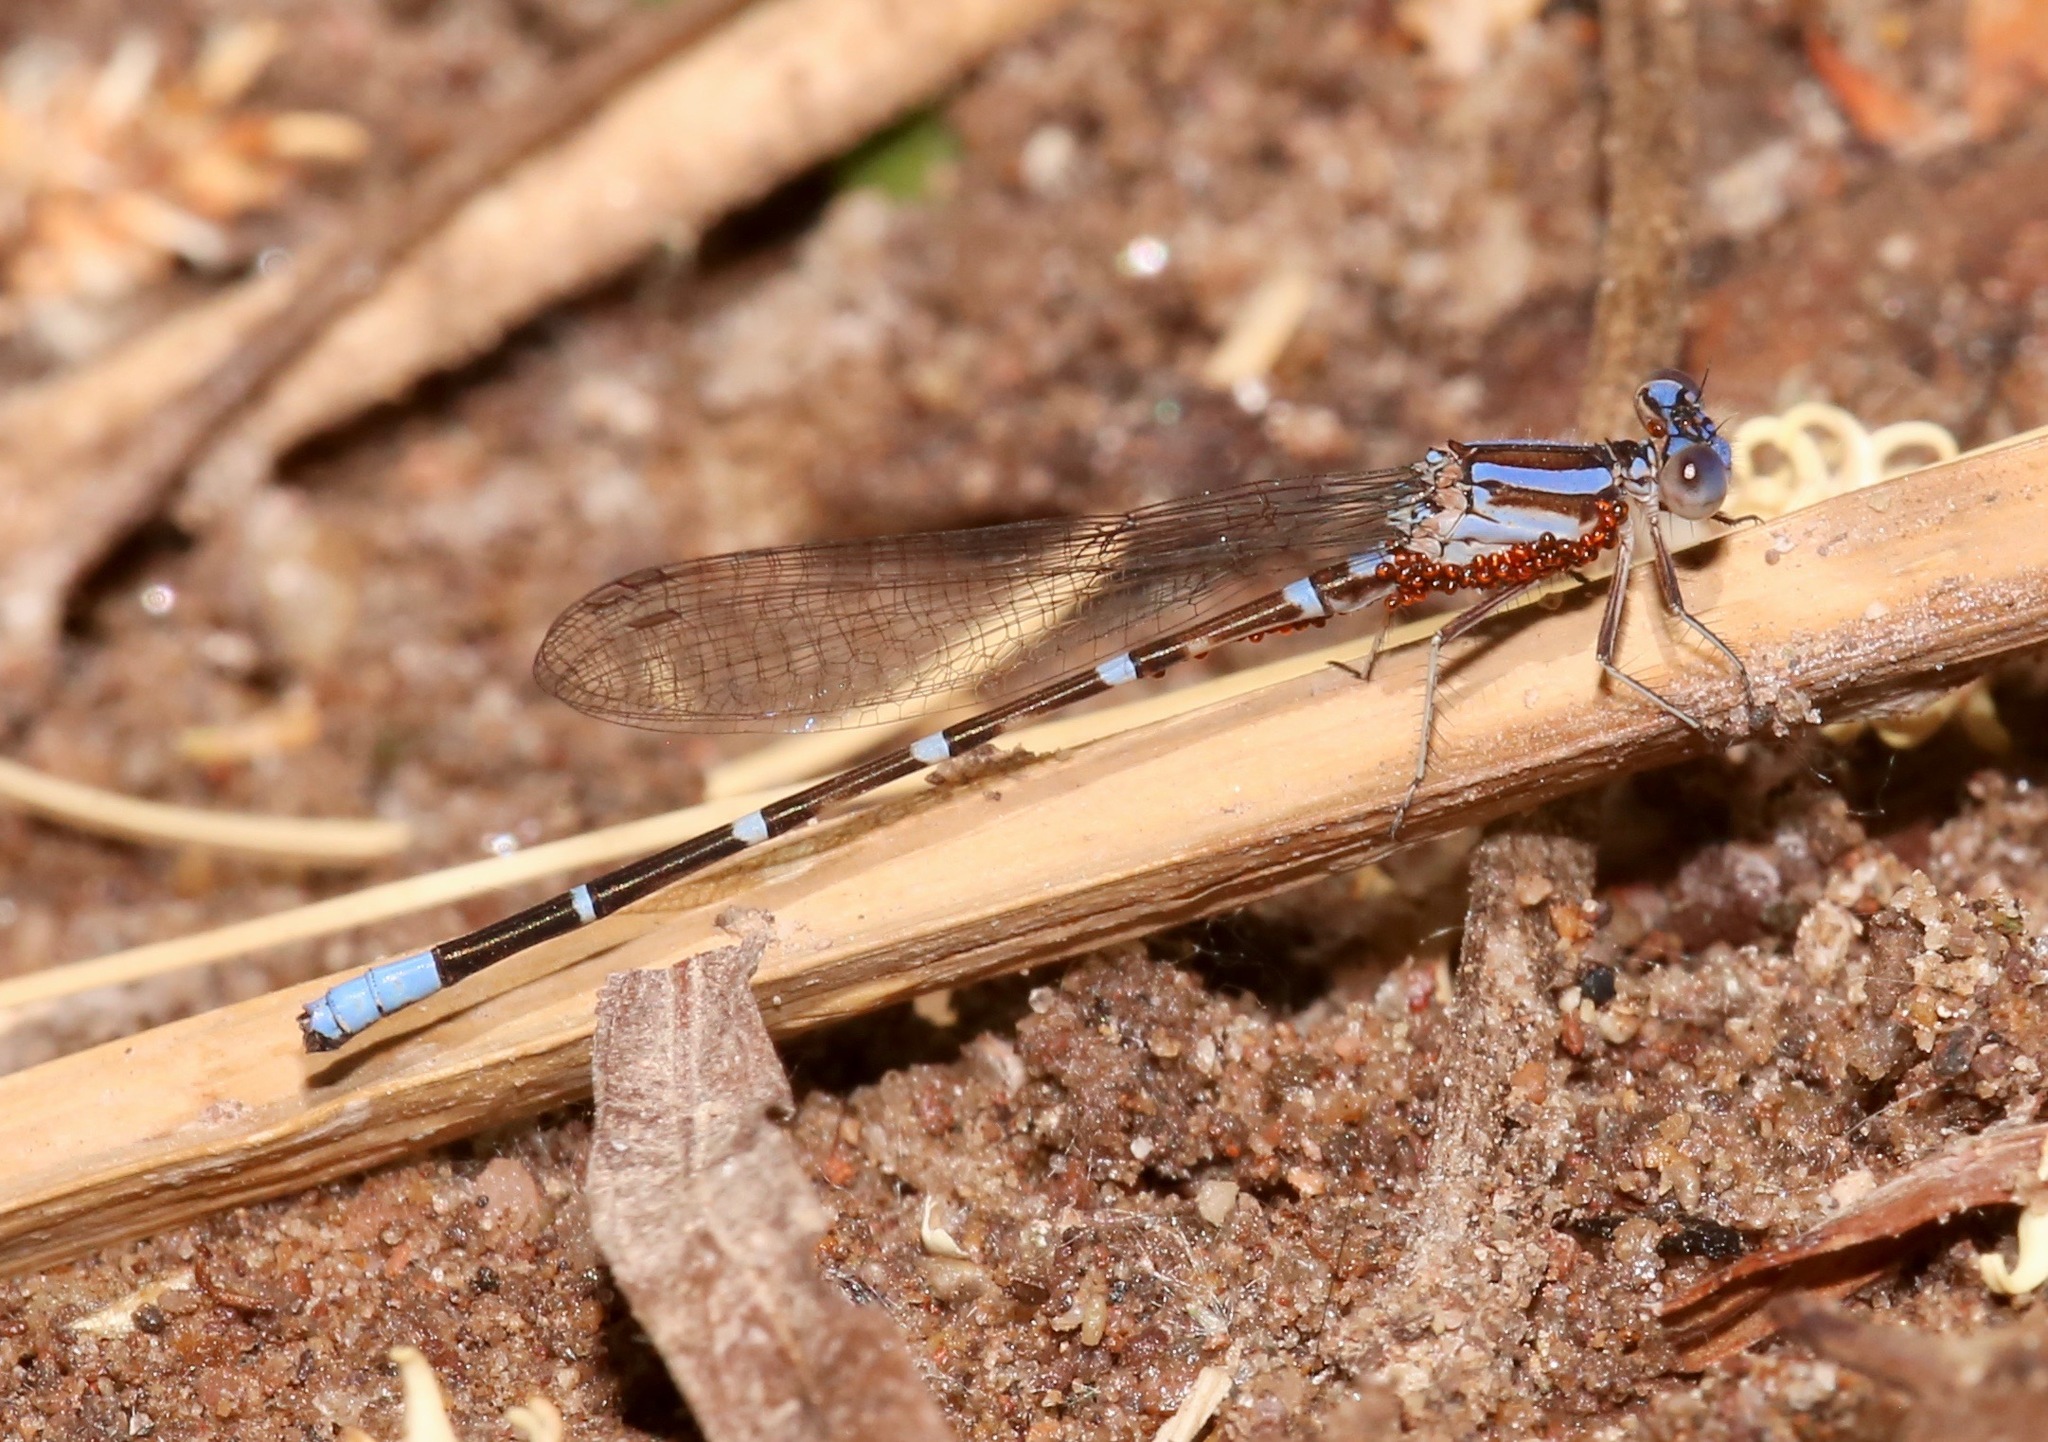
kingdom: Animalia
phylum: Arthropoda
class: Insecta
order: Odonata
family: Coenagrionidae
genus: Argia
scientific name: Argia sedula
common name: Blue-ringed dancer
